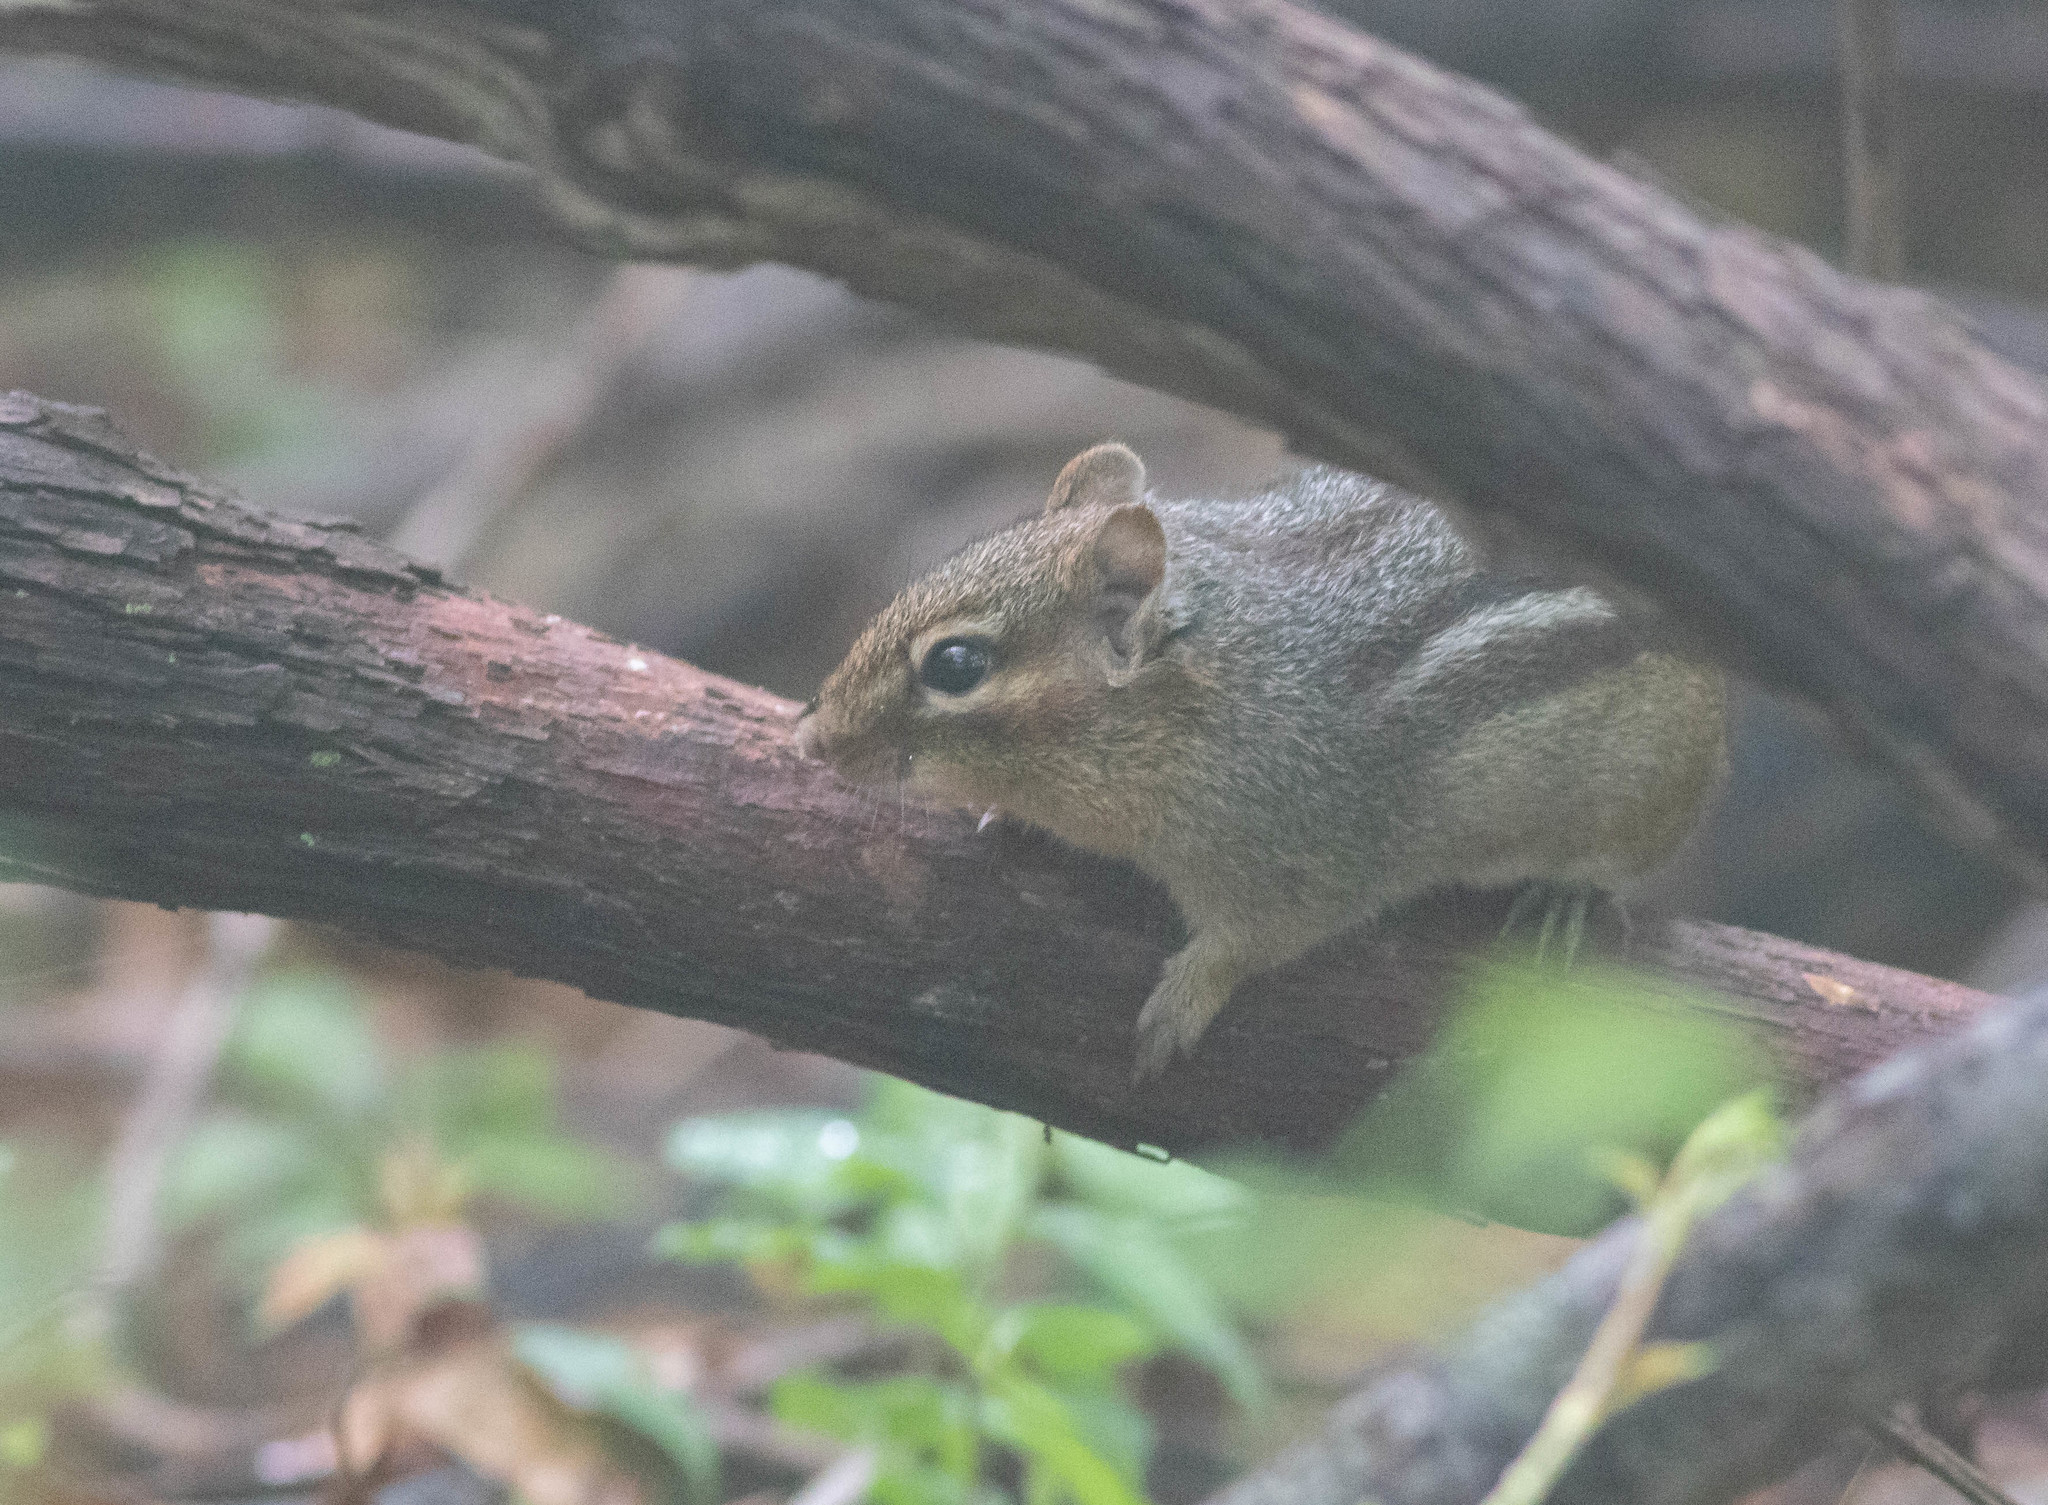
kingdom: Animalia
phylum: Chordata
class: Mammalia
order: Rodentia
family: Sciuridae
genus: Tamias
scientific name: Tamias striatus
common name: Eastern chipmunk
